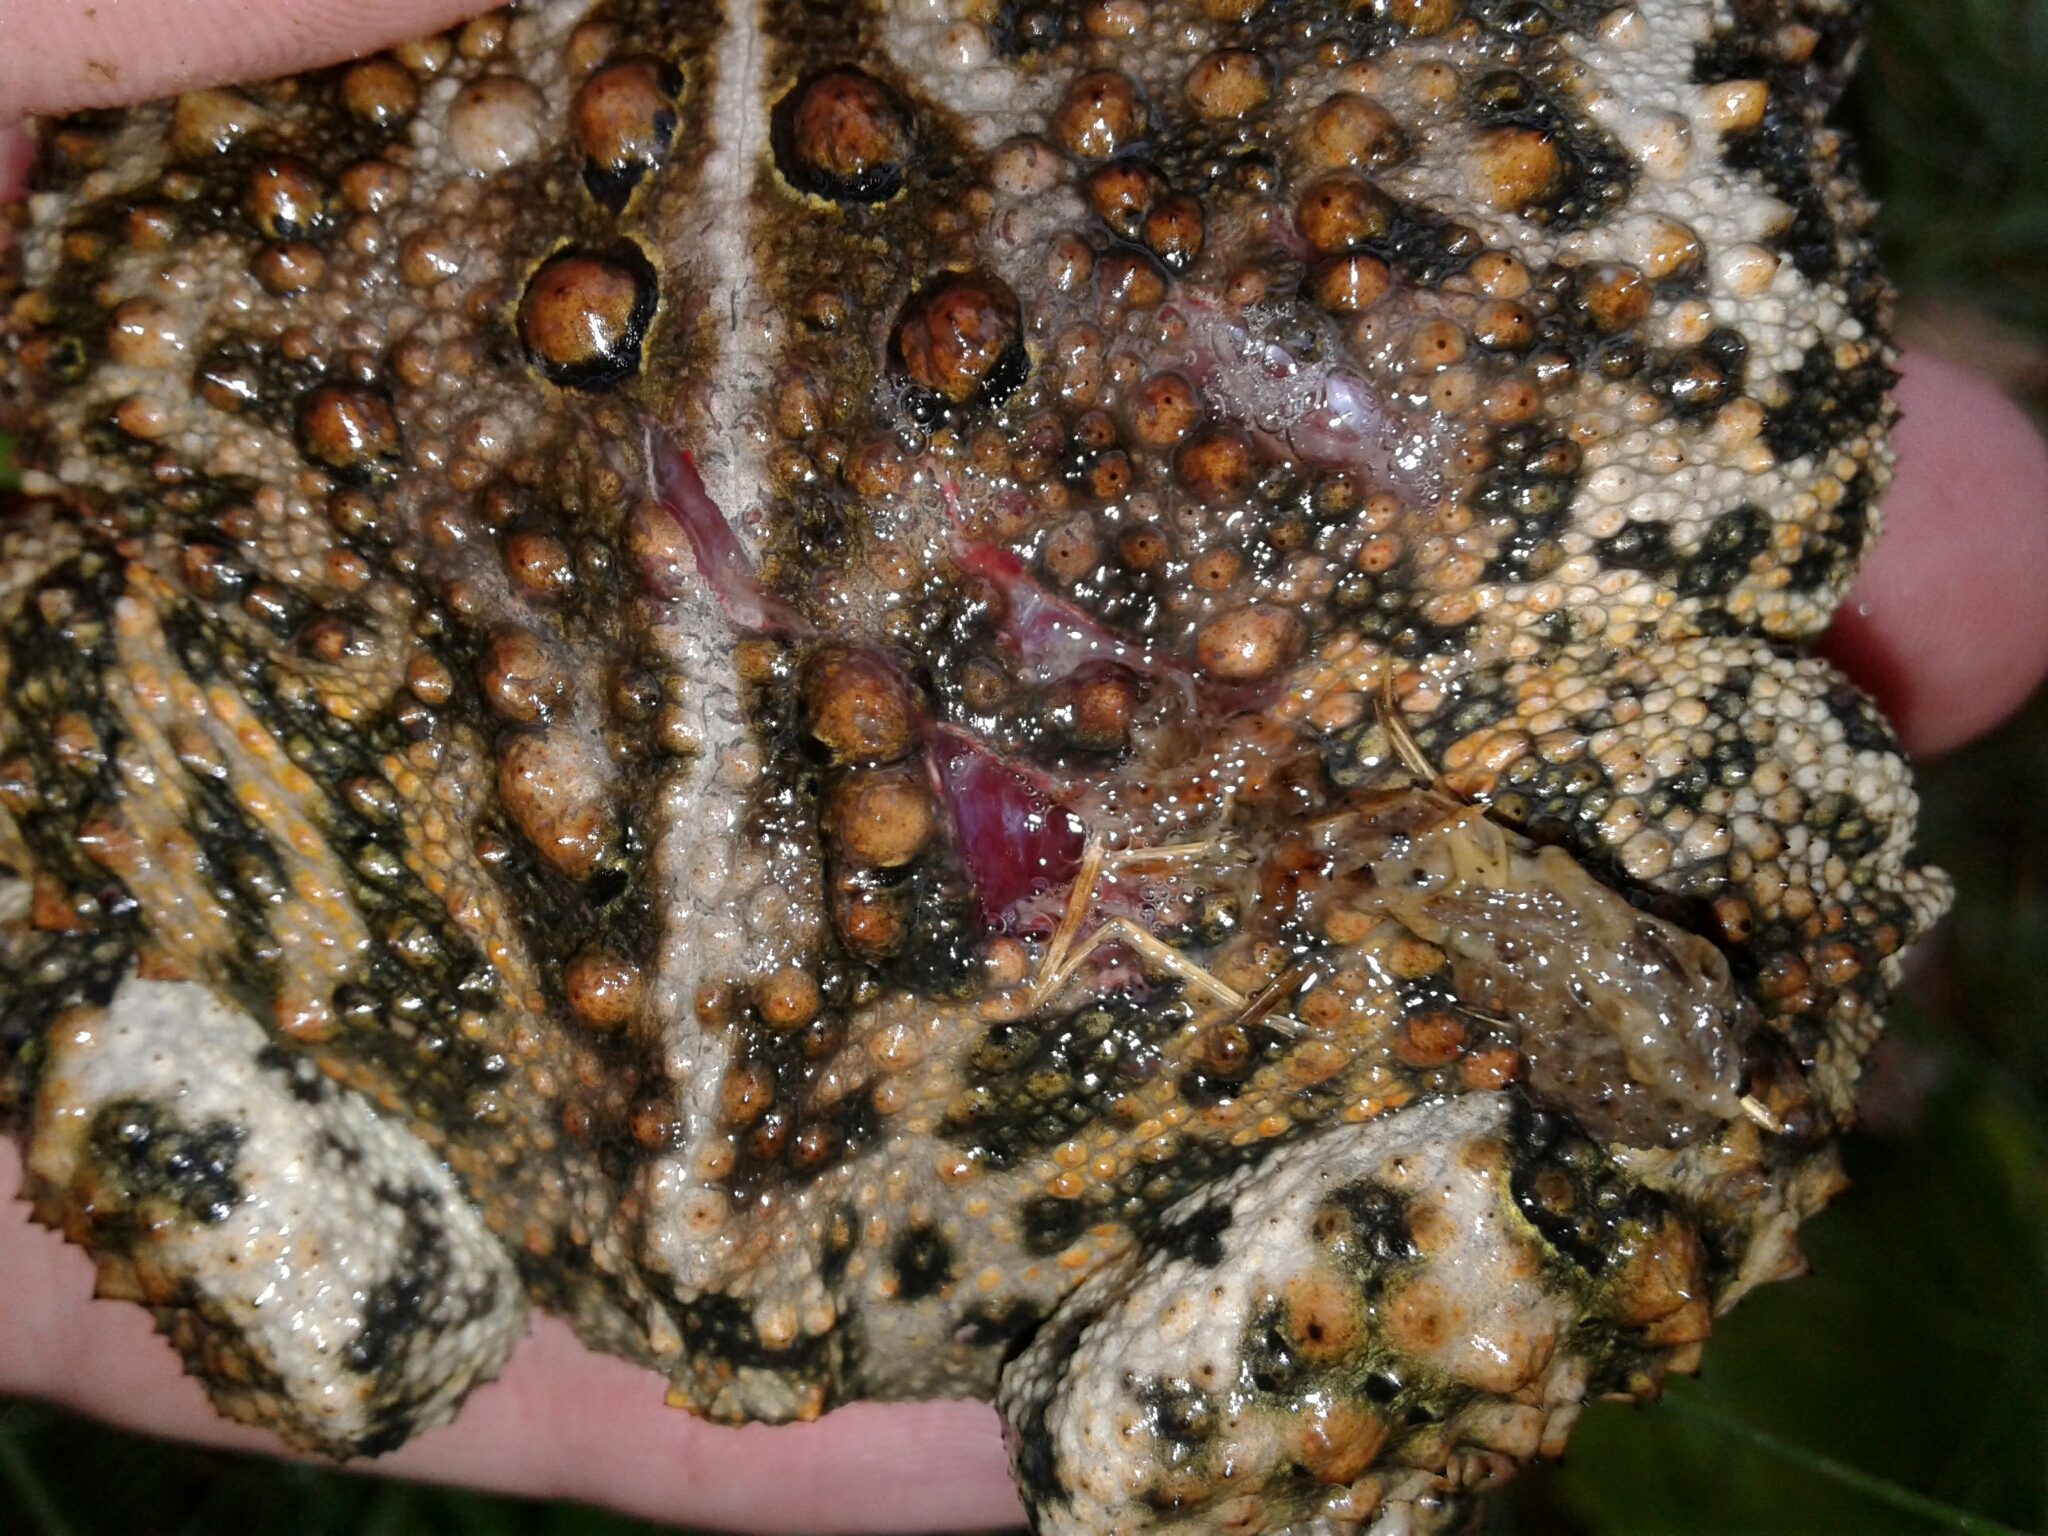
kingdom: Animalia
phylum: Chordata
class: Amphibia
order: Anura
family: Bufonidae
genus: Anaxyrus
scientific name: Anaxyrus americanus
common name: American toad
